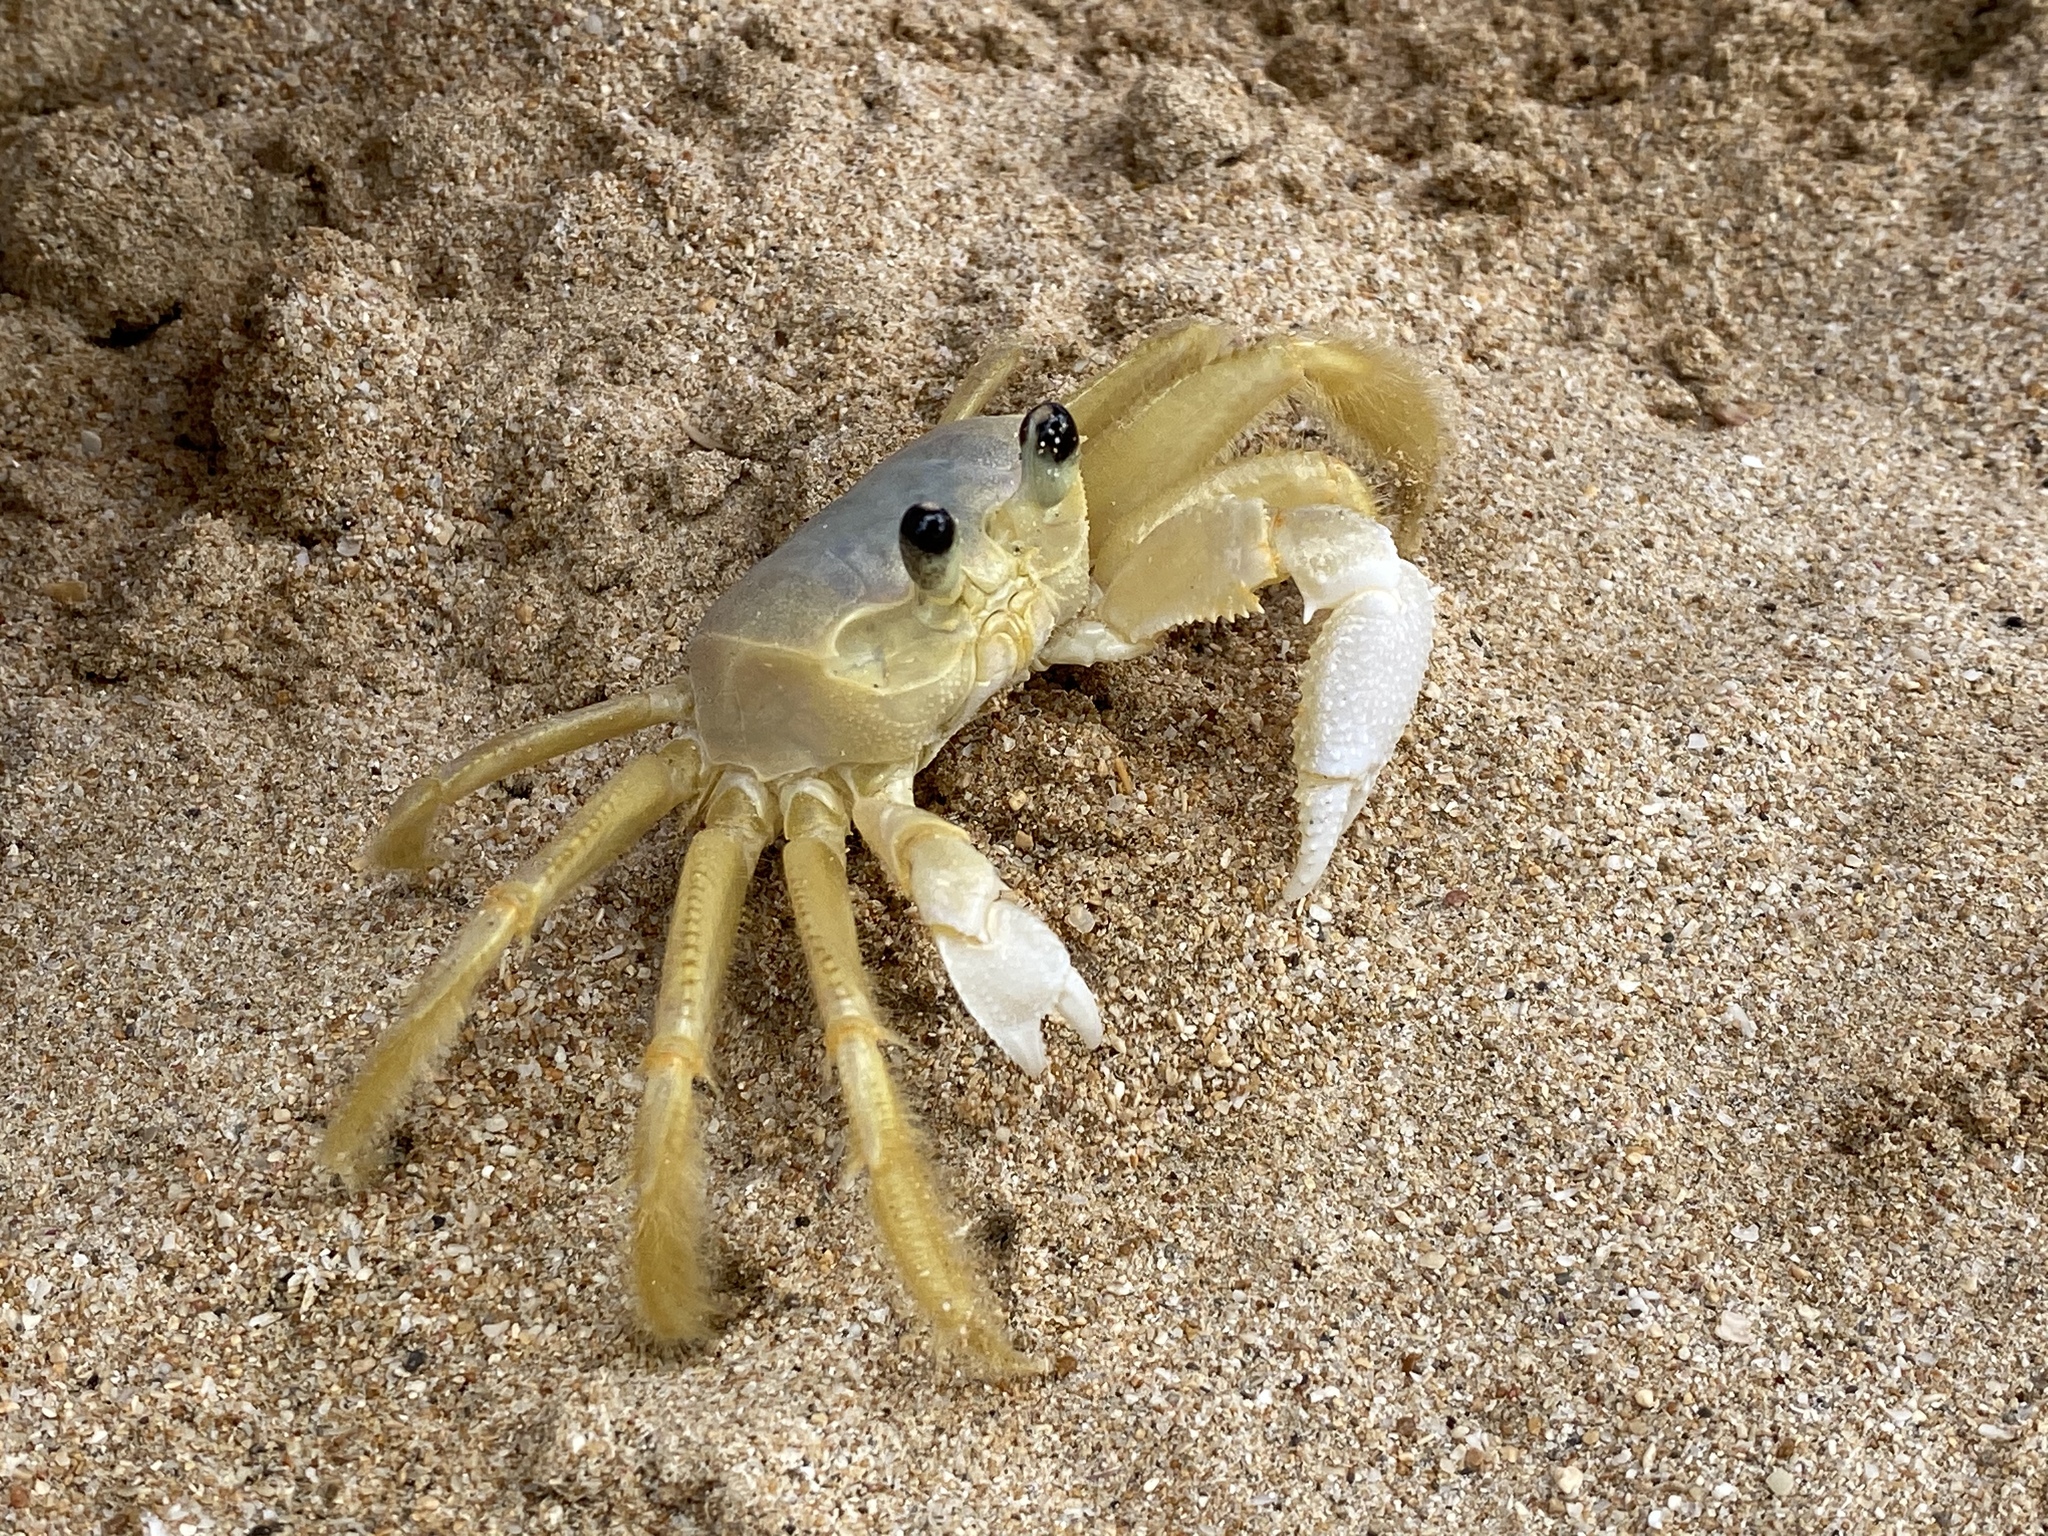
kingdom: Animalia
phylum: Arthropoda
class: Malacostraca
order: Decapoda
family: Ocypodidae
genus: Ocypode
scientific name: Ocypode quadrata
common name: Ghost crab
